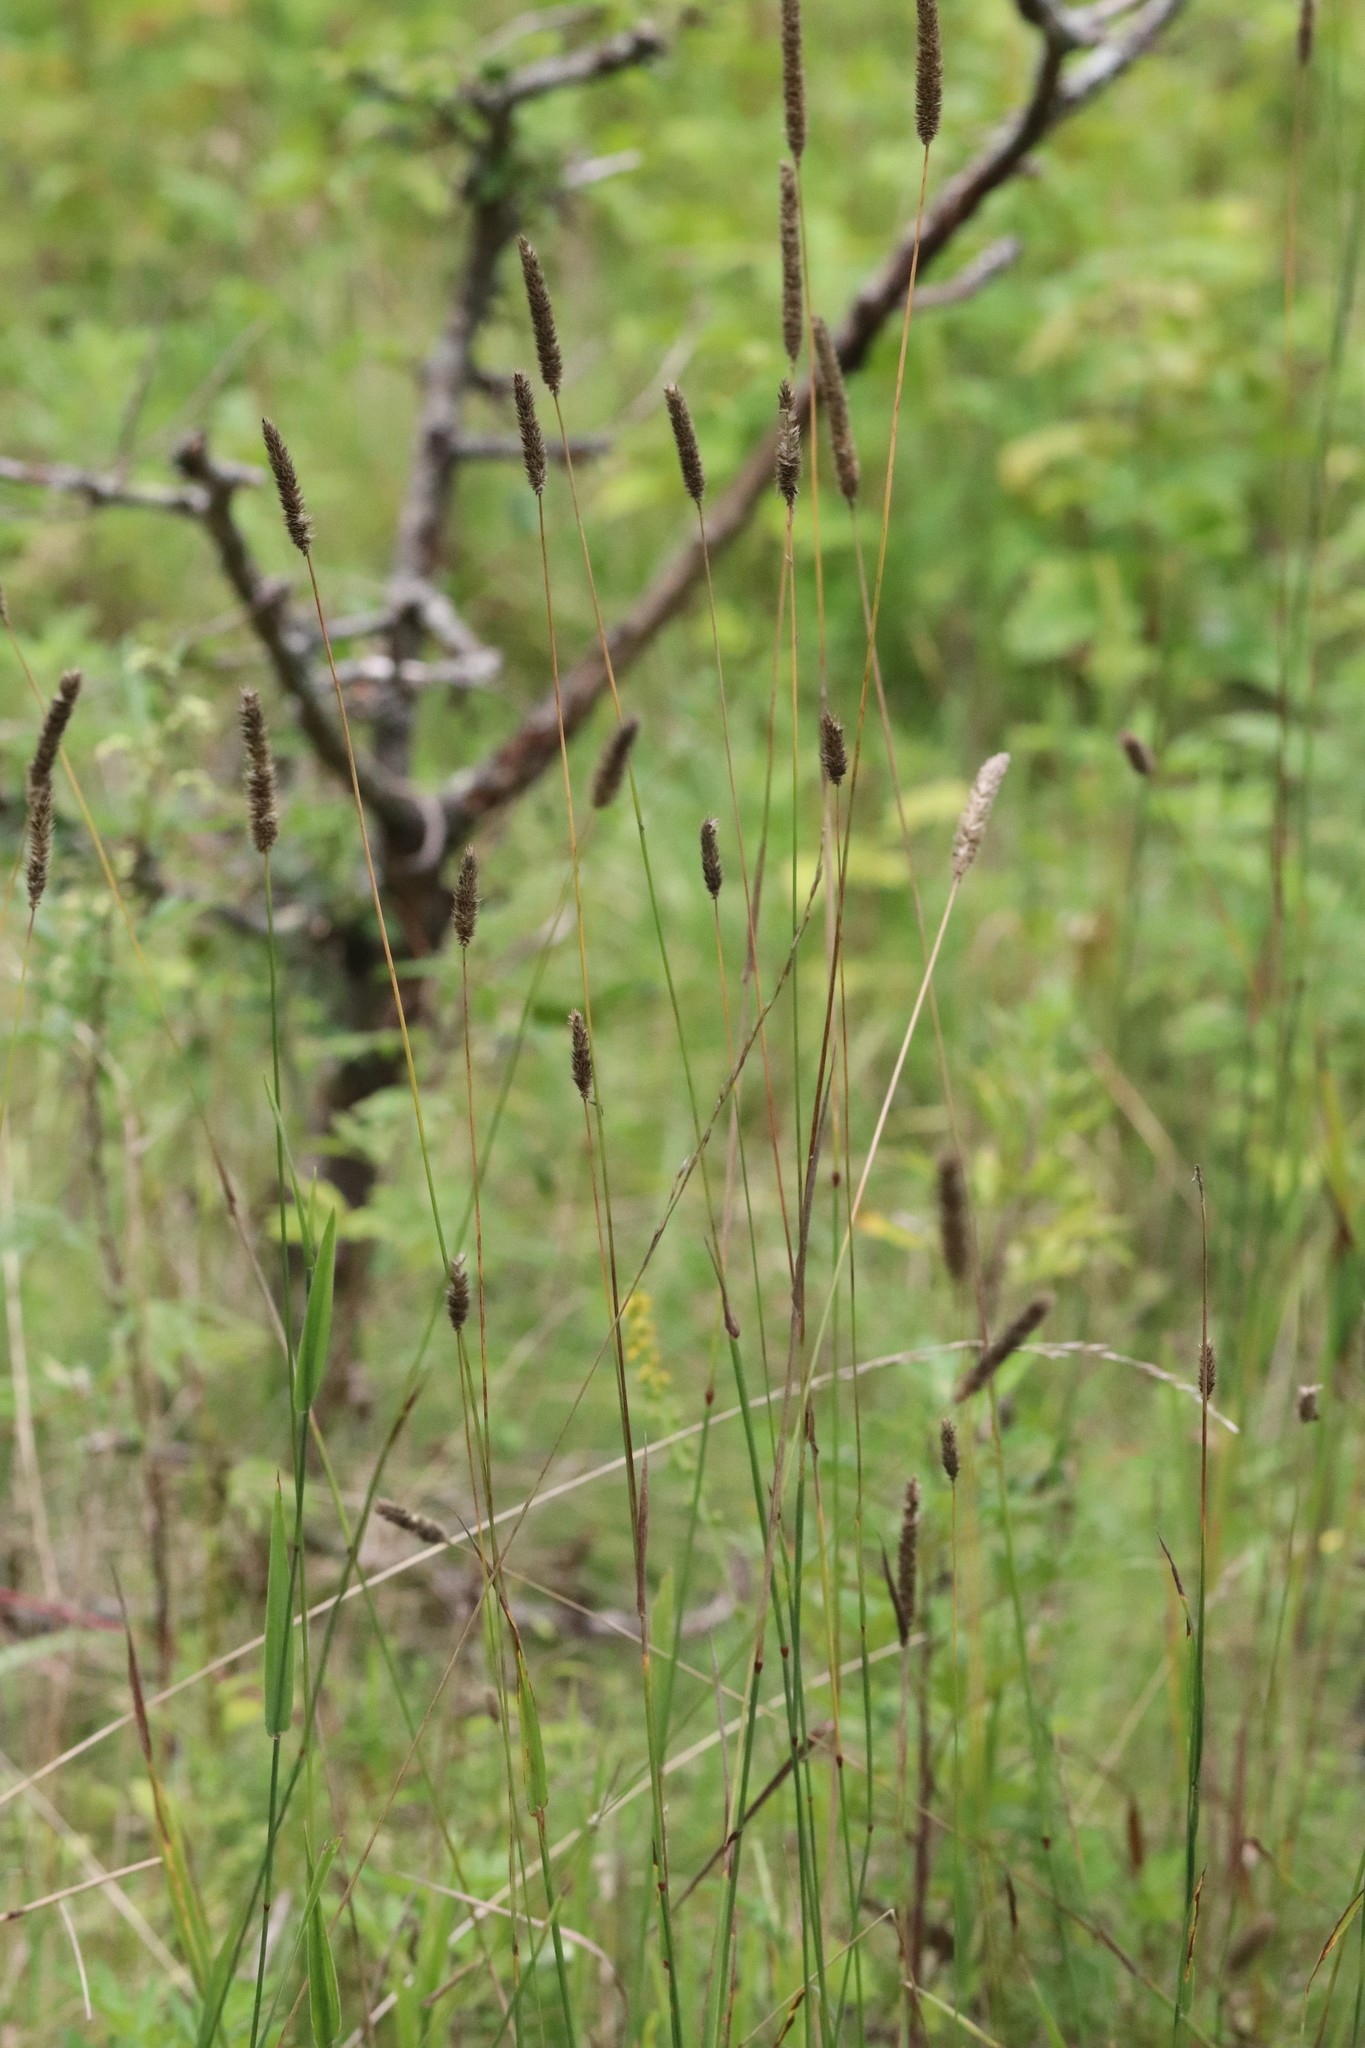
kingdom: Plantae
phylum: Tracheophyta
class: Liliopsida
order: Poales
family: Poaceae
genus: Phleum
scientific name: Phleum pratense
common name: Timothy grass
